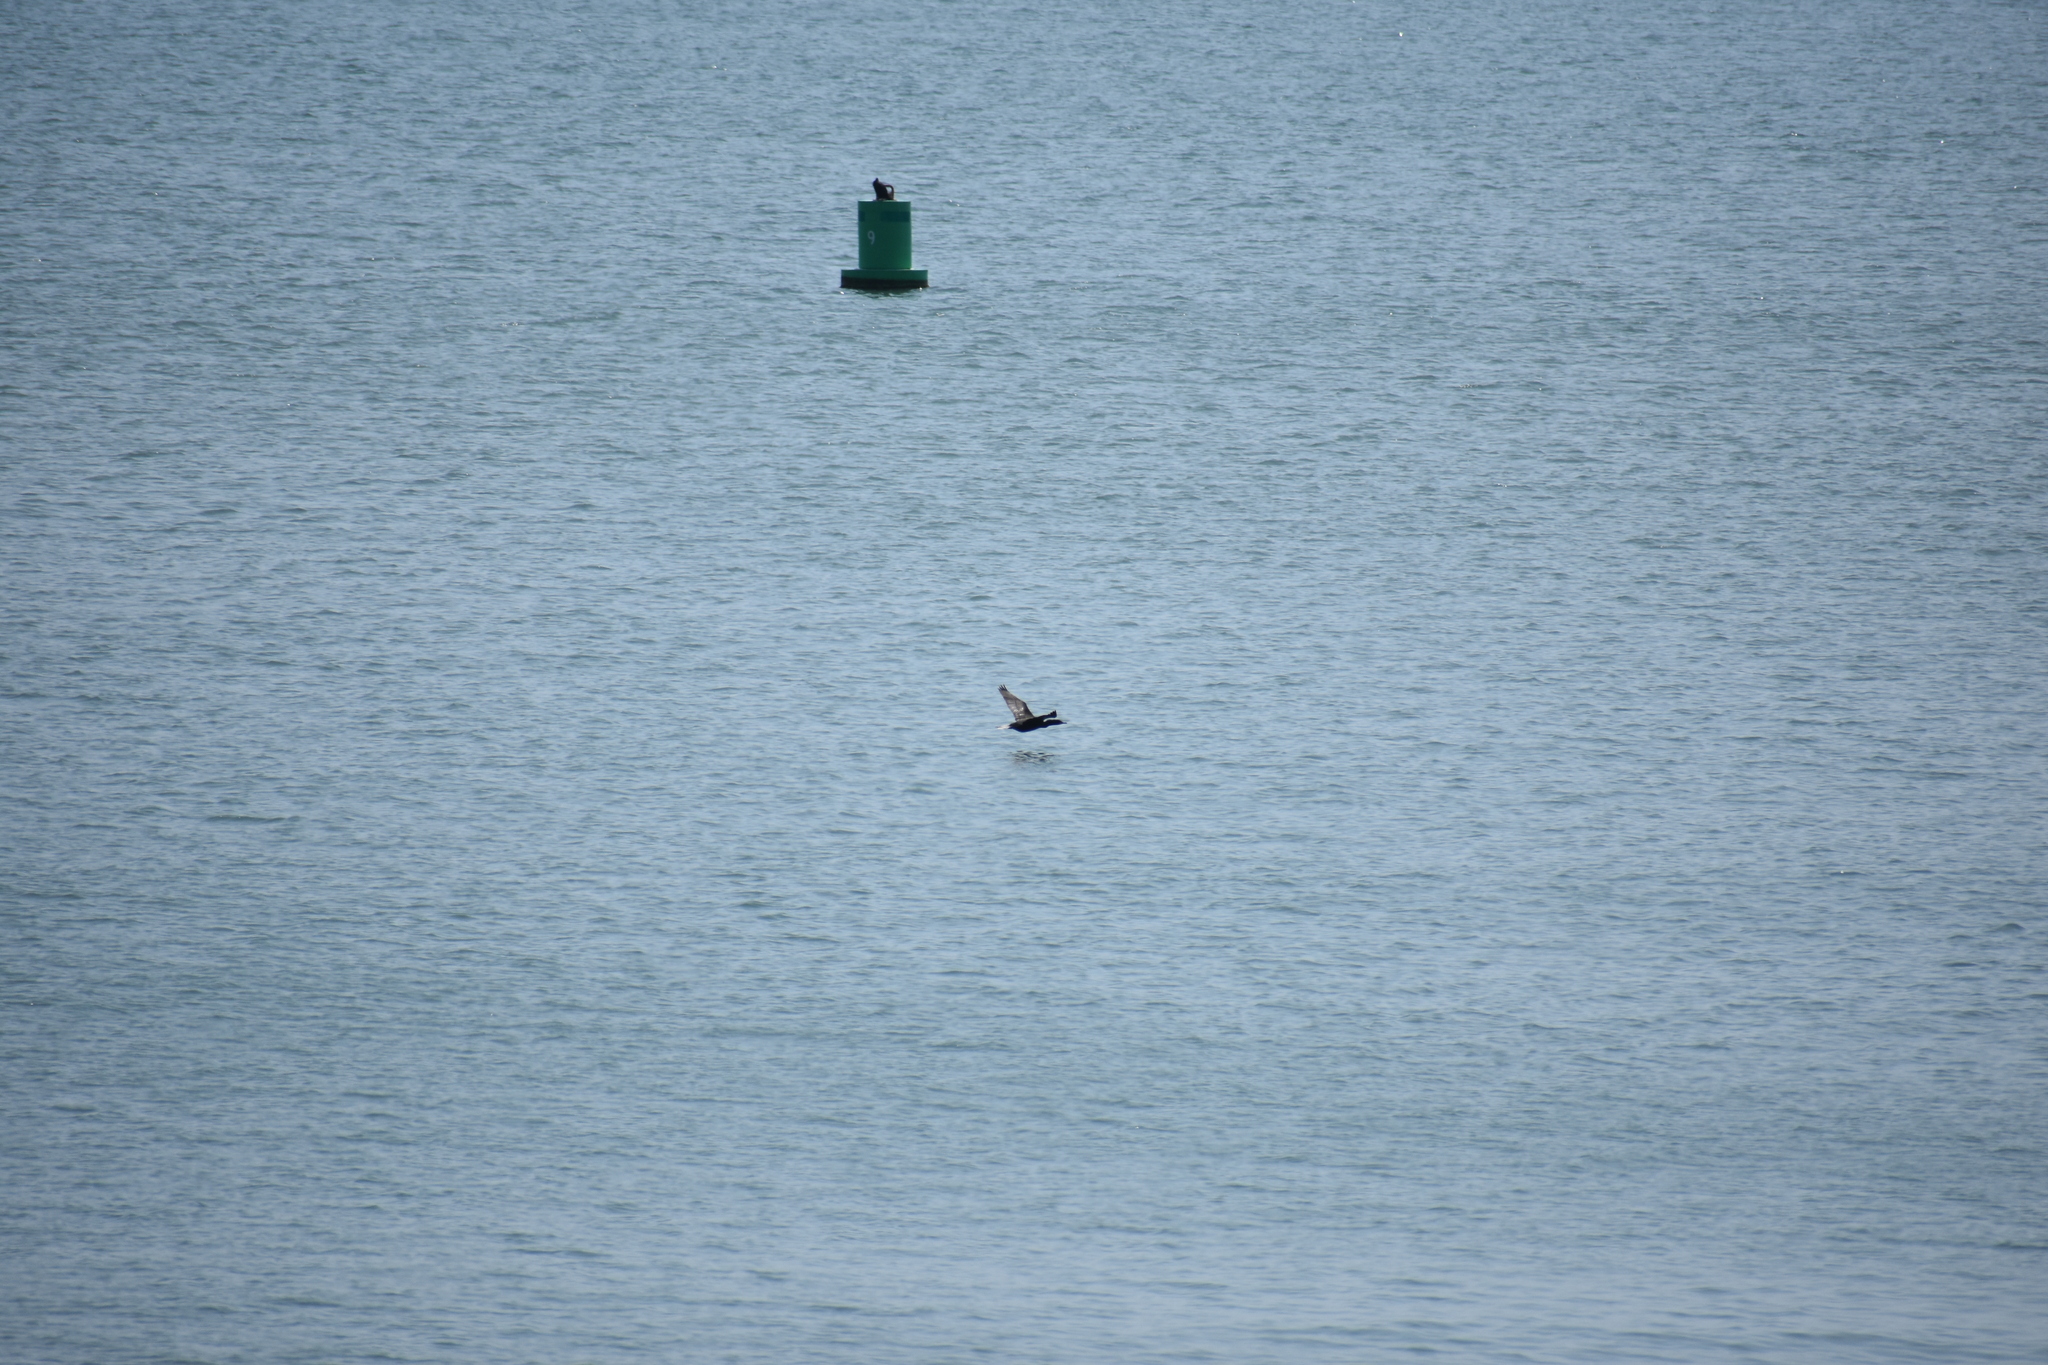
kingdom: Animalia
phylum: Chordata
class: Aves
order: Suliformes
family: Phalacrocoracidae
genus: Phalacrocorax
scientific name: Phalacrocorax auritus
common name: Double-crested cormorant
